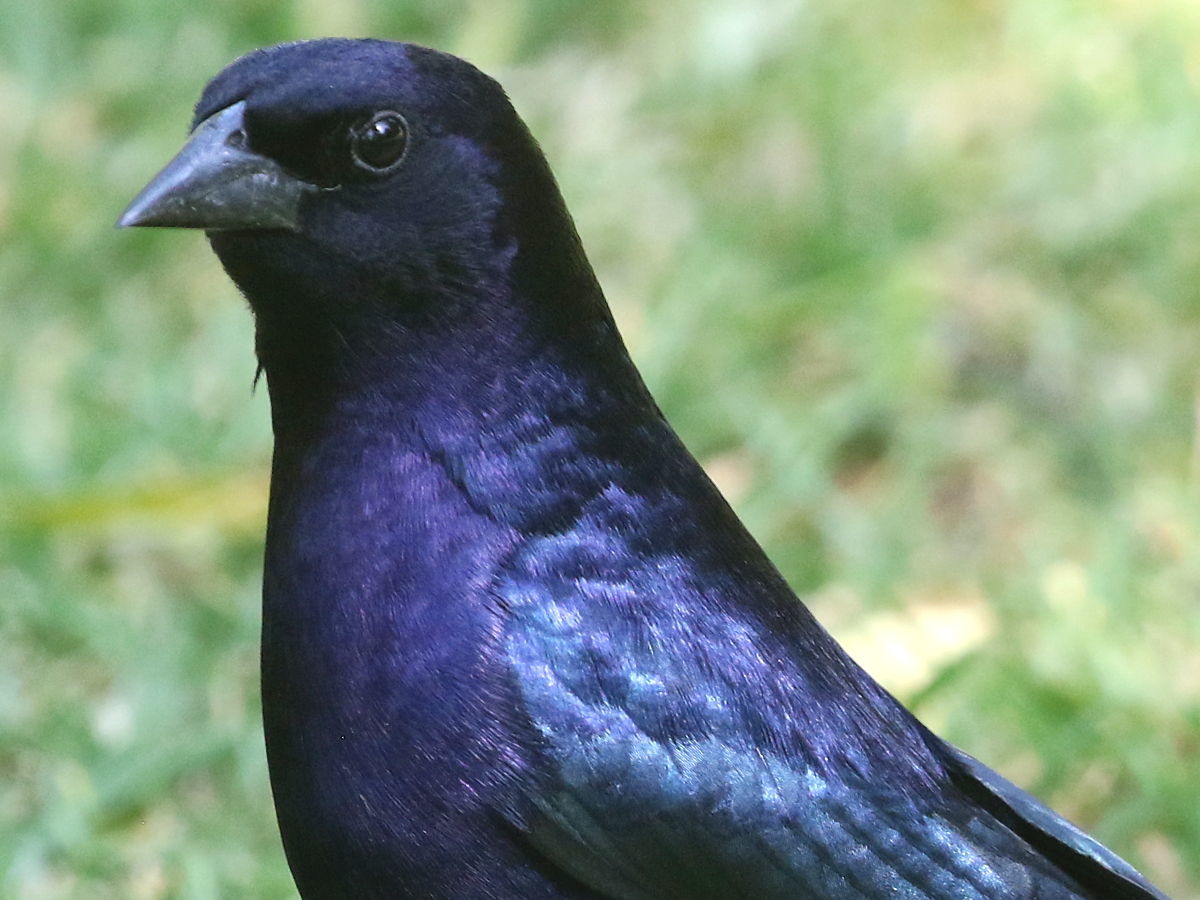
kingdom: Animalia
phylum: Chordata
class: Aves
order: Passeriformes
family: Icteridae
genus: Molothrus
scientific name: Molothrus bonariensis
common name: Shiny cowbird
